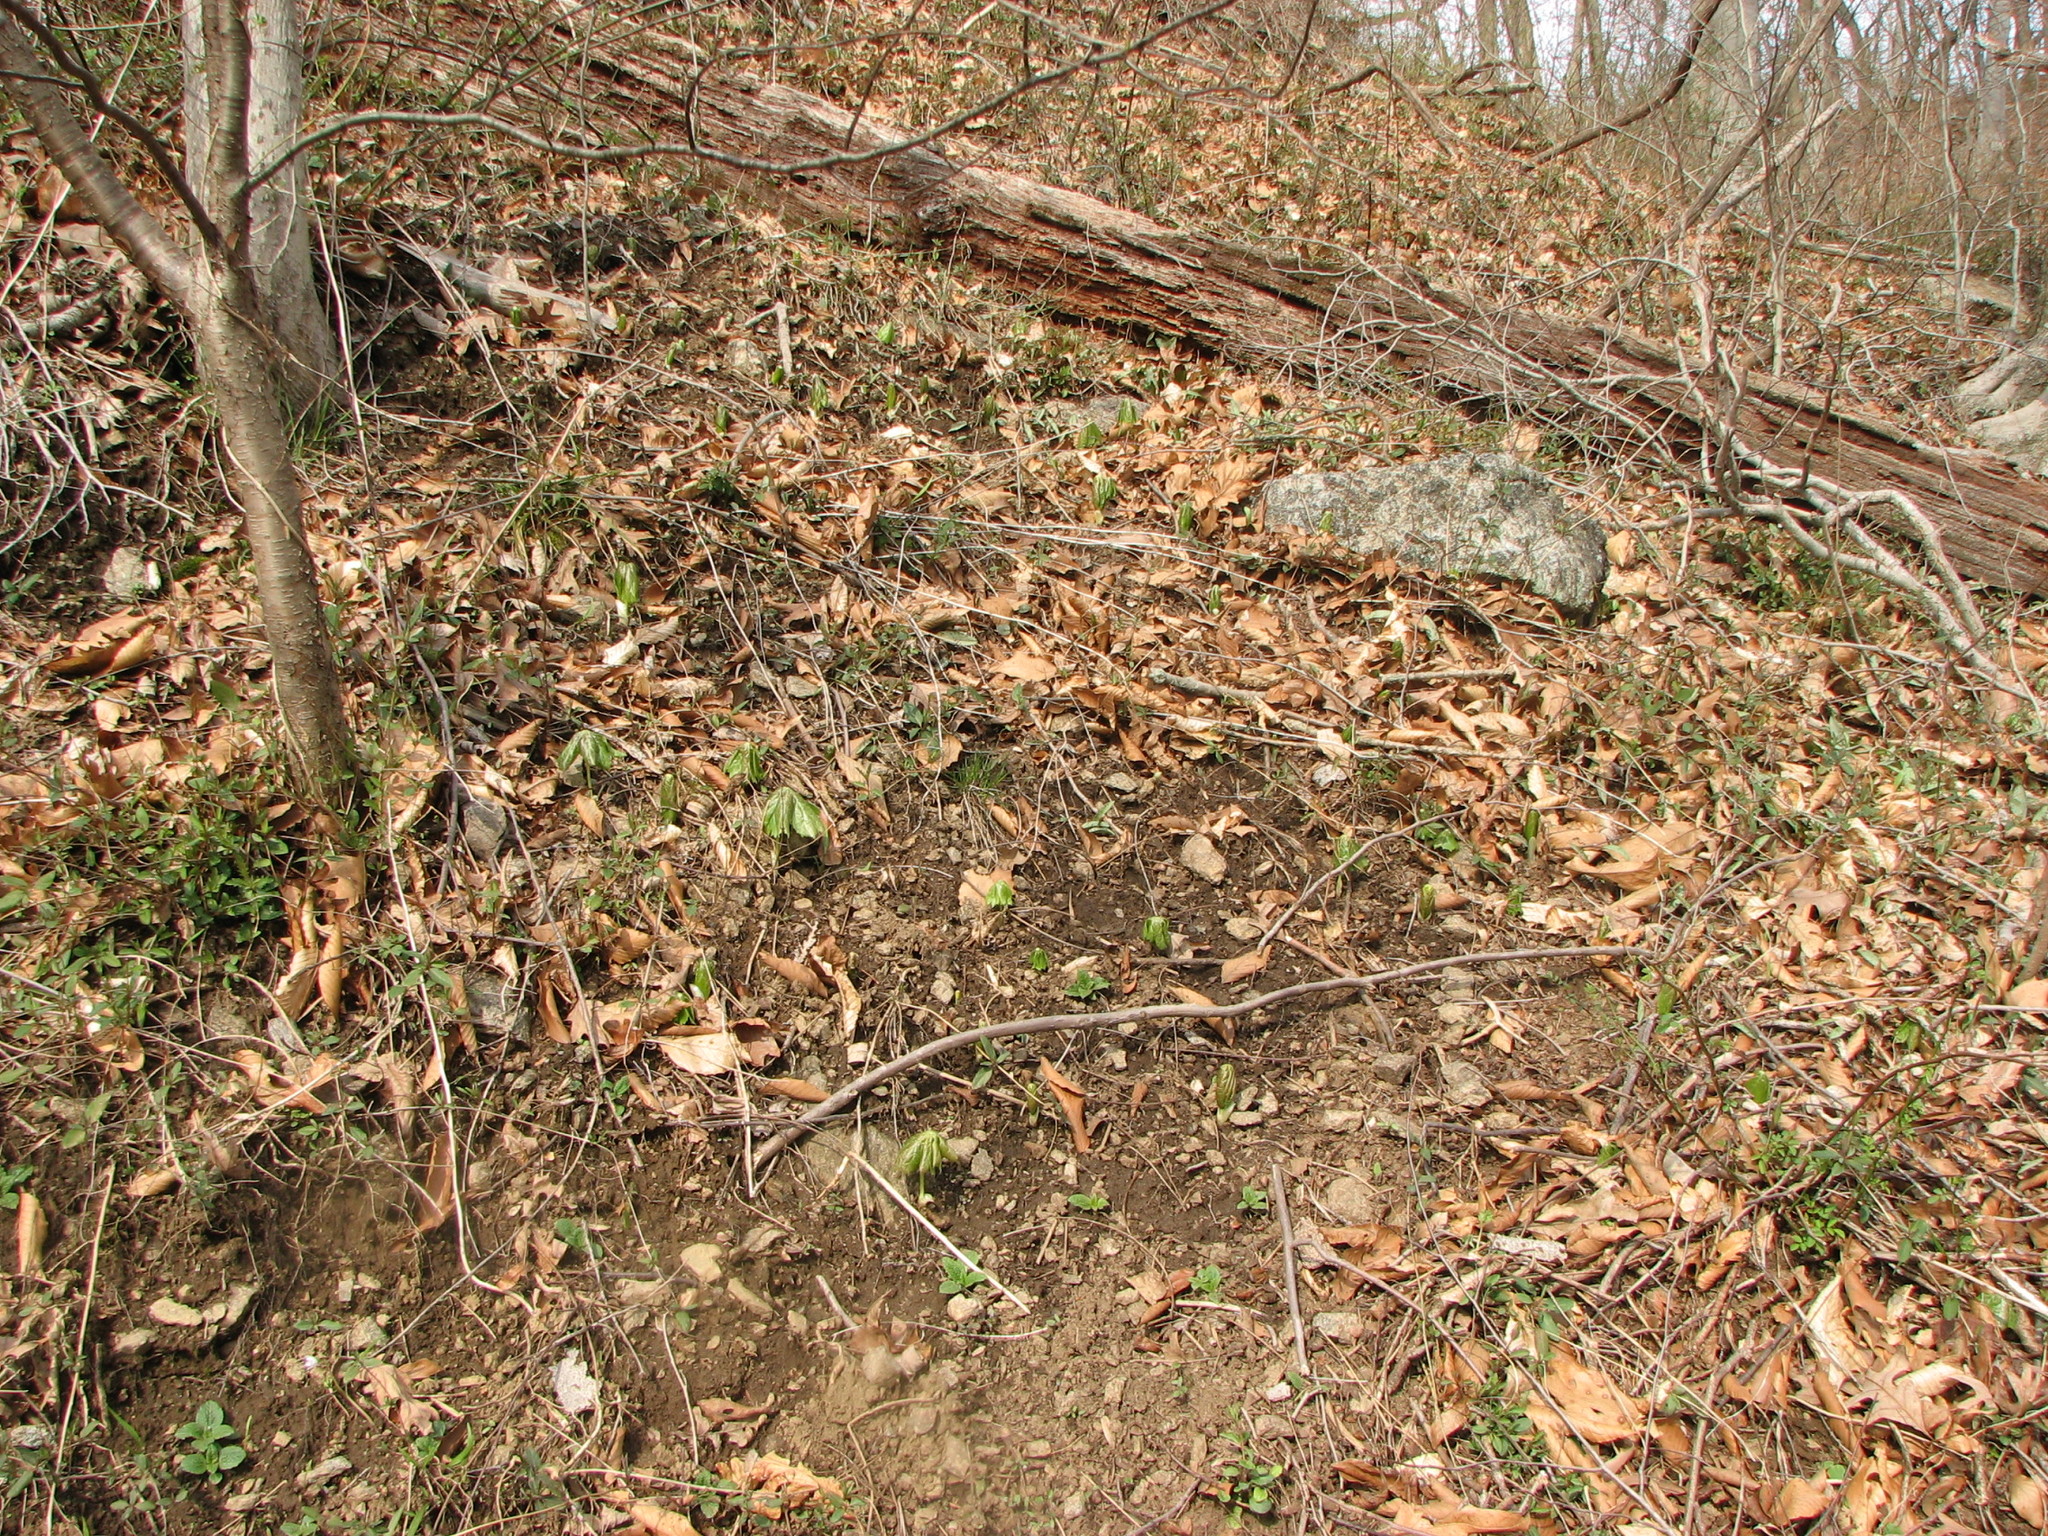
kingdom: Plantae
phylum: Tracheophyta
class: Magnoliopsida
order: Ranunculales
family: Berberidaceae
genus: Podophyllum
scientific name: Podophyllum peltatum
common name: Wild mandrake
